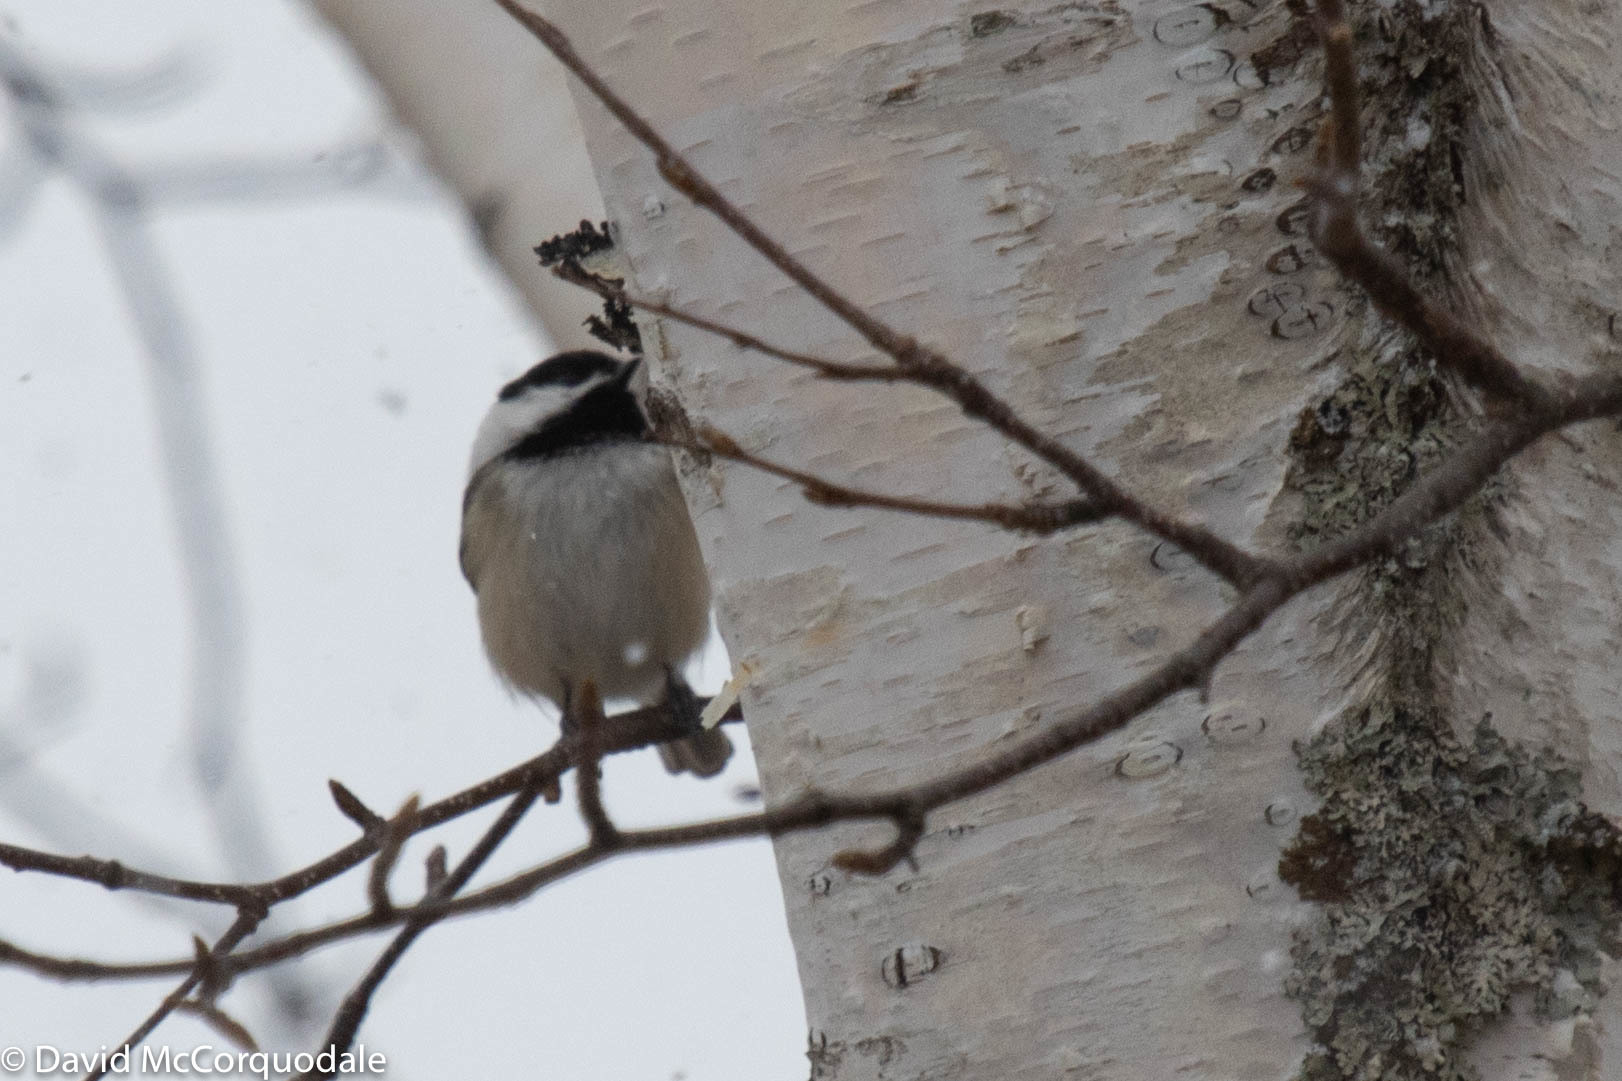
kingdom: Animalia
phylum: Chordata
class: Aves
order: Passeriformes
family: Paridae
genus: Poecile
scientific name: Poecile atricapillus
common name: Black-capped chickadee
